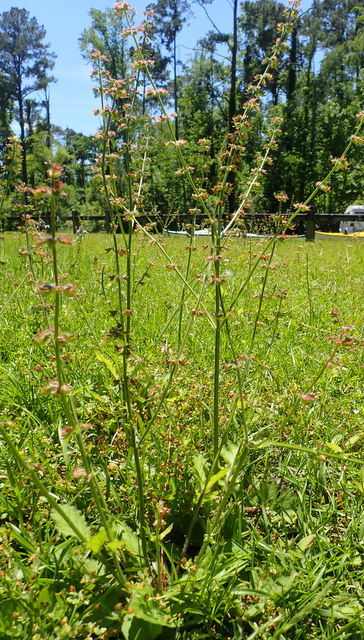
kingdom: Plantae
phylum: Tracheophyta
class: Magnoliopsida
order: Lamiales
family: Lamiaceae
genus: Salvia
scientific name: Salvia lyrata
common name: Cancerweed
